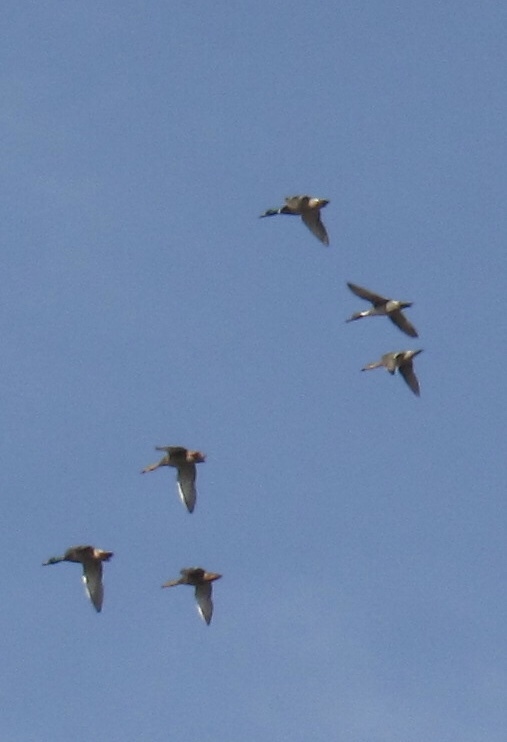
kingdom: Animalia
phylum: Chordata
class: Aves
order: Anseriformes
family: Anatidae
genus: Anas
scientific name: Anas platyrhynchos
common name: Mallard
